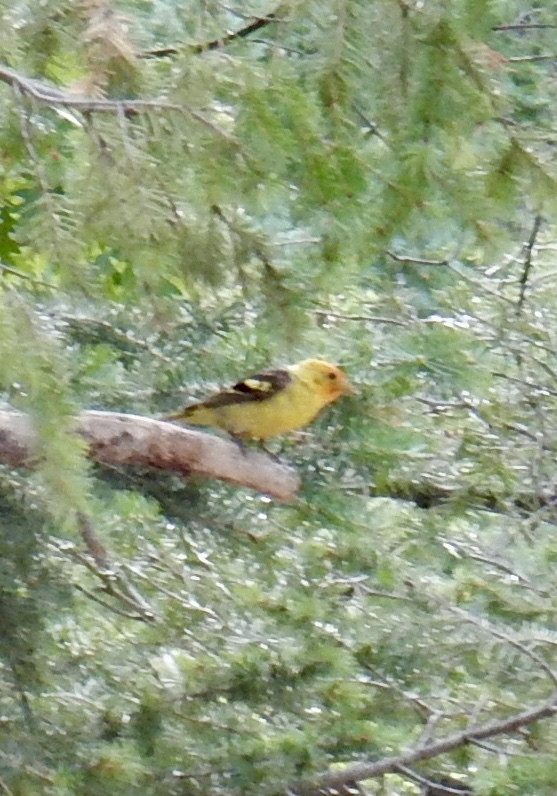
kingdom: Animalia
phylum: Chordata
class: Aves
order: Passeriformes
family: Cardinalidae
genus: Piranga
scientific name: Piranga ludoviciana
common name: Western tanager
